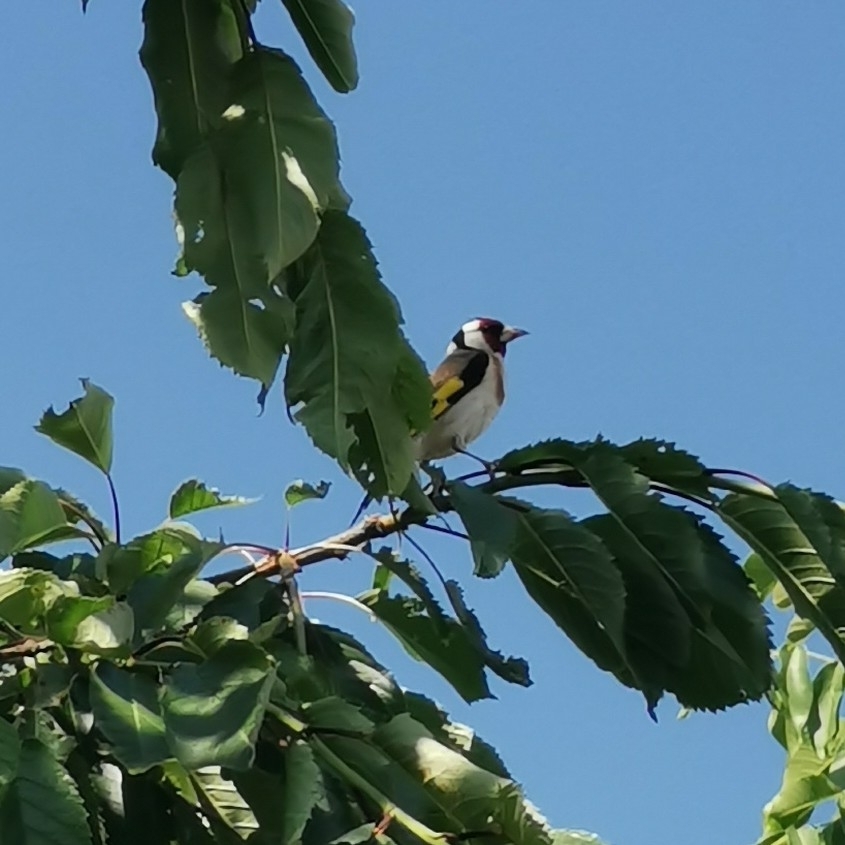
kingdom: Animalia
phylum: Chordata
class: Aves
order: Passeriformes
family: Fringillidae
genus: Carduelis
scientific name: Carduelis carduelis
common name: European goldfinch
